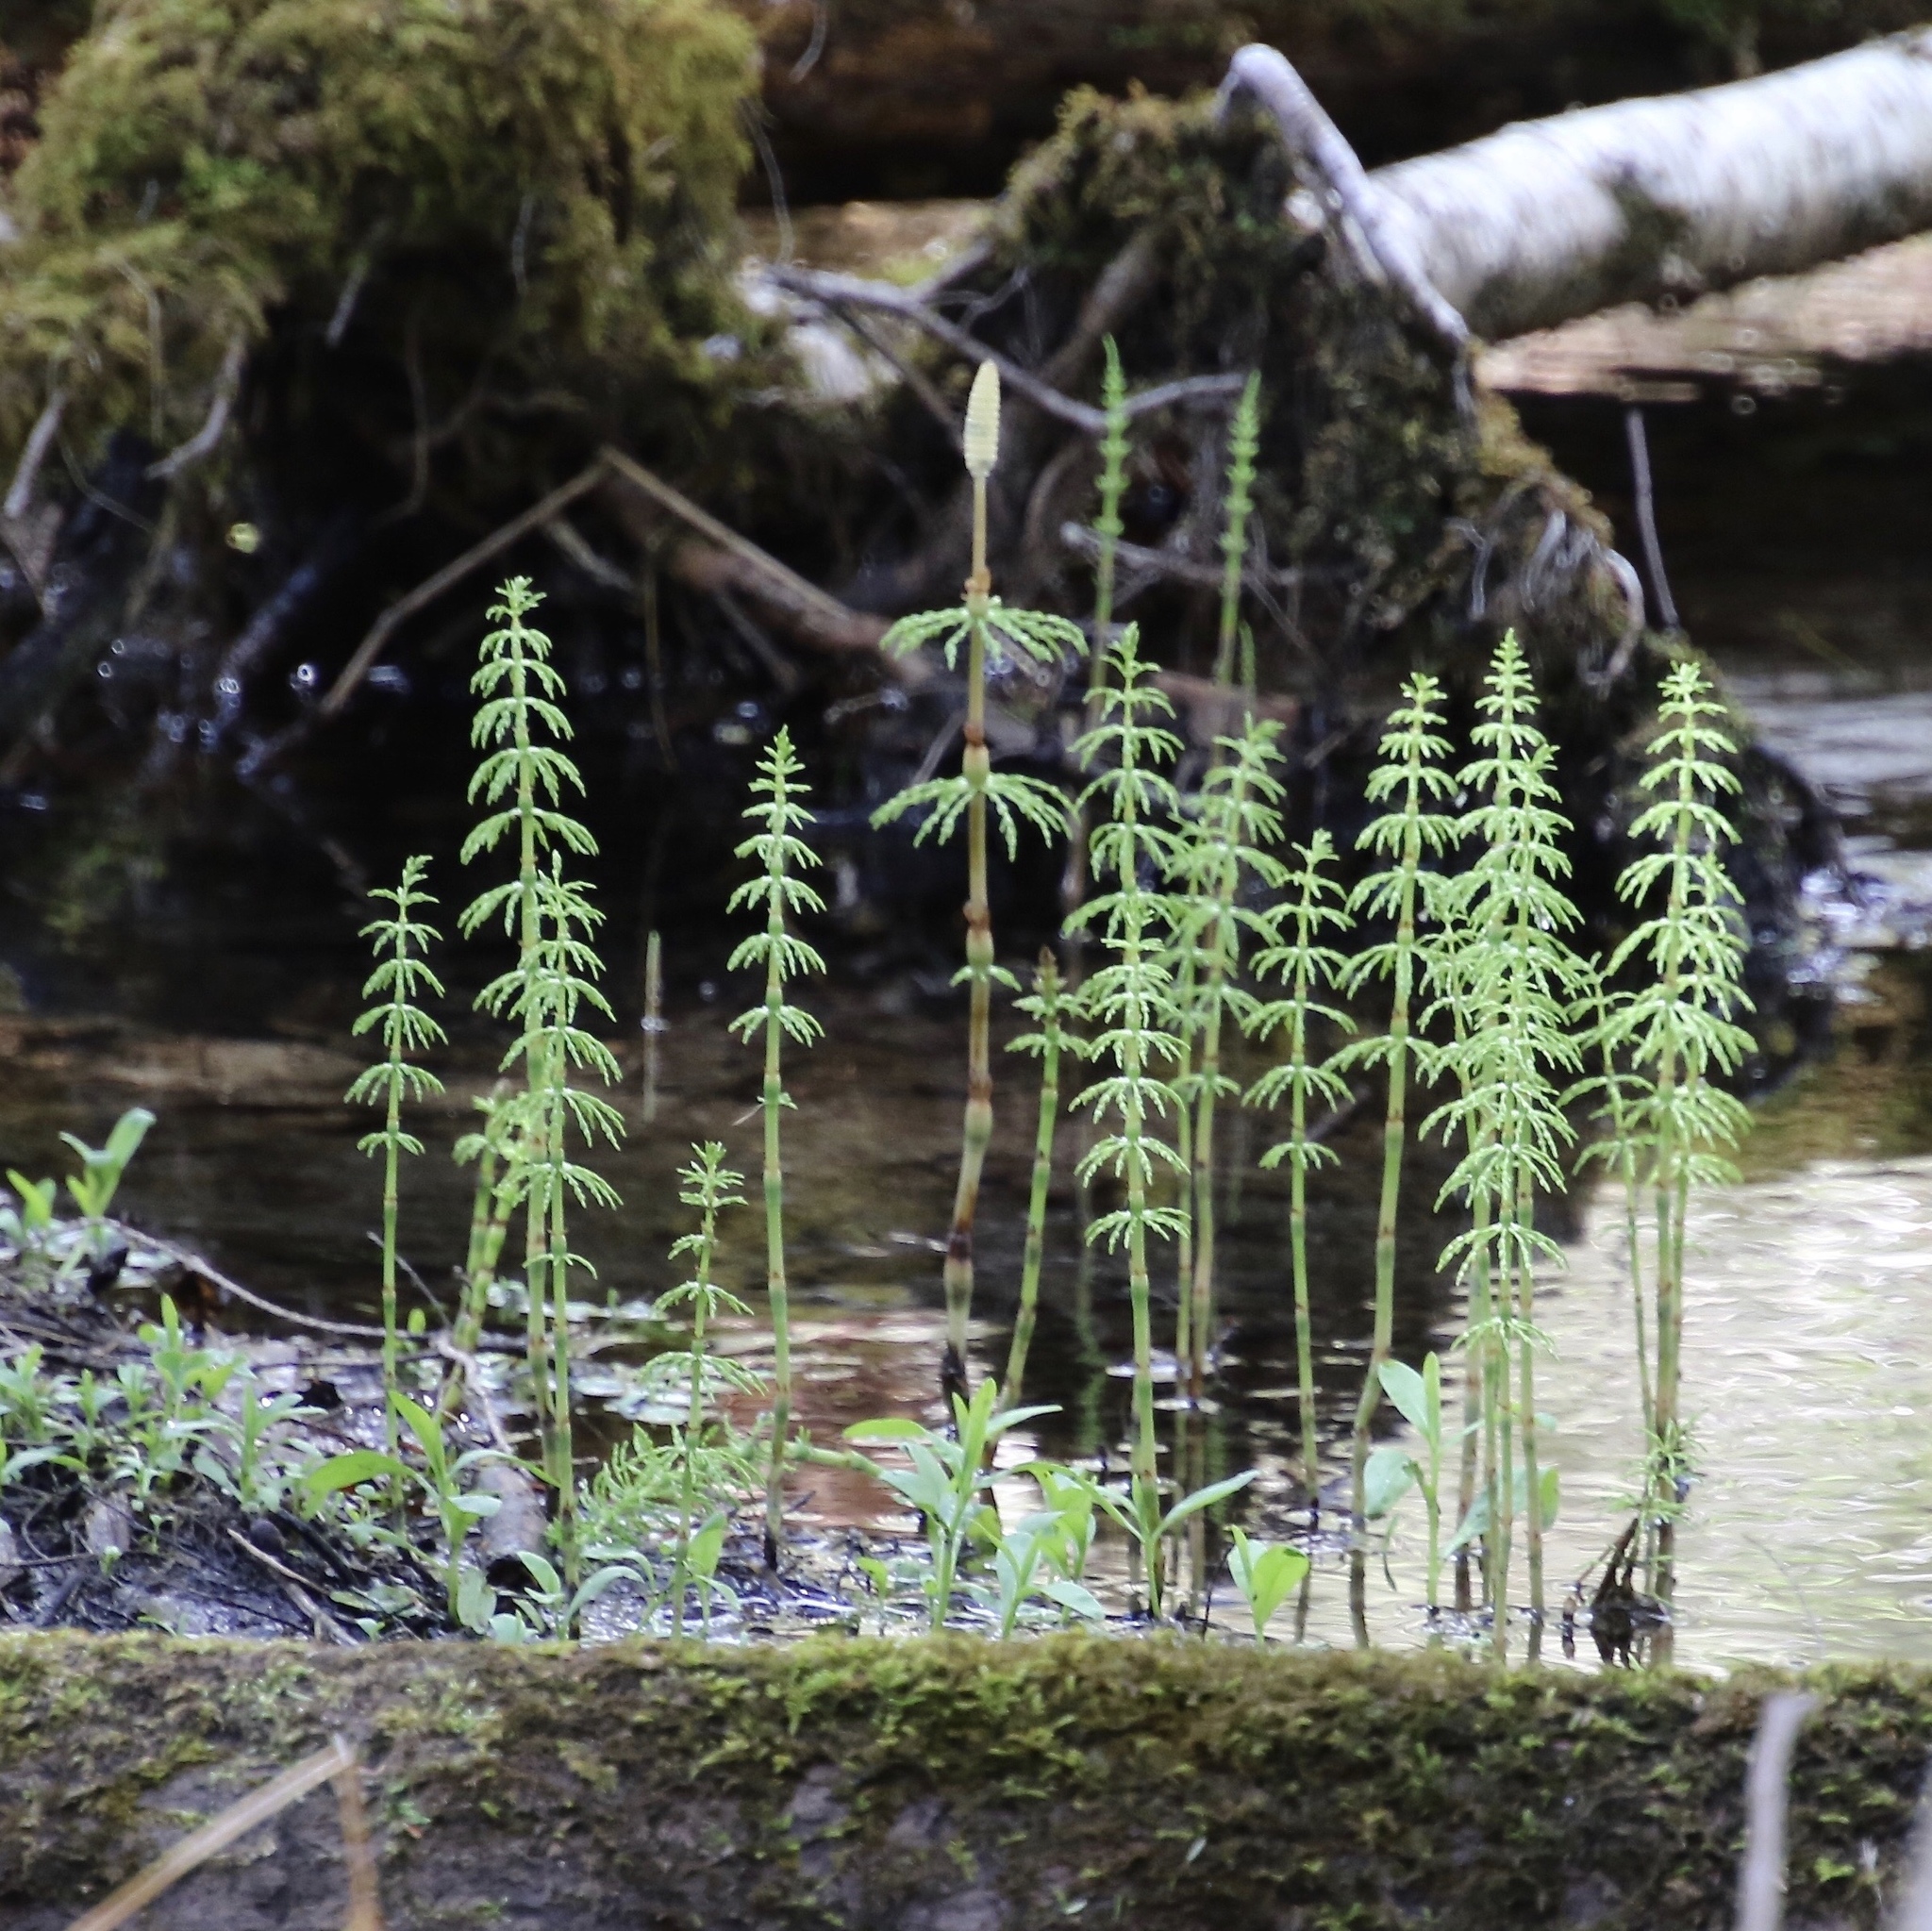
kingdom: Plantae
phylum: Tracheophyta
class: Polypodiopsida
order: Equisetales
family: Equisetaceae
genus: Equisetum
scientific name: Equisetum sylvaticum
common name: Wood horsetail
